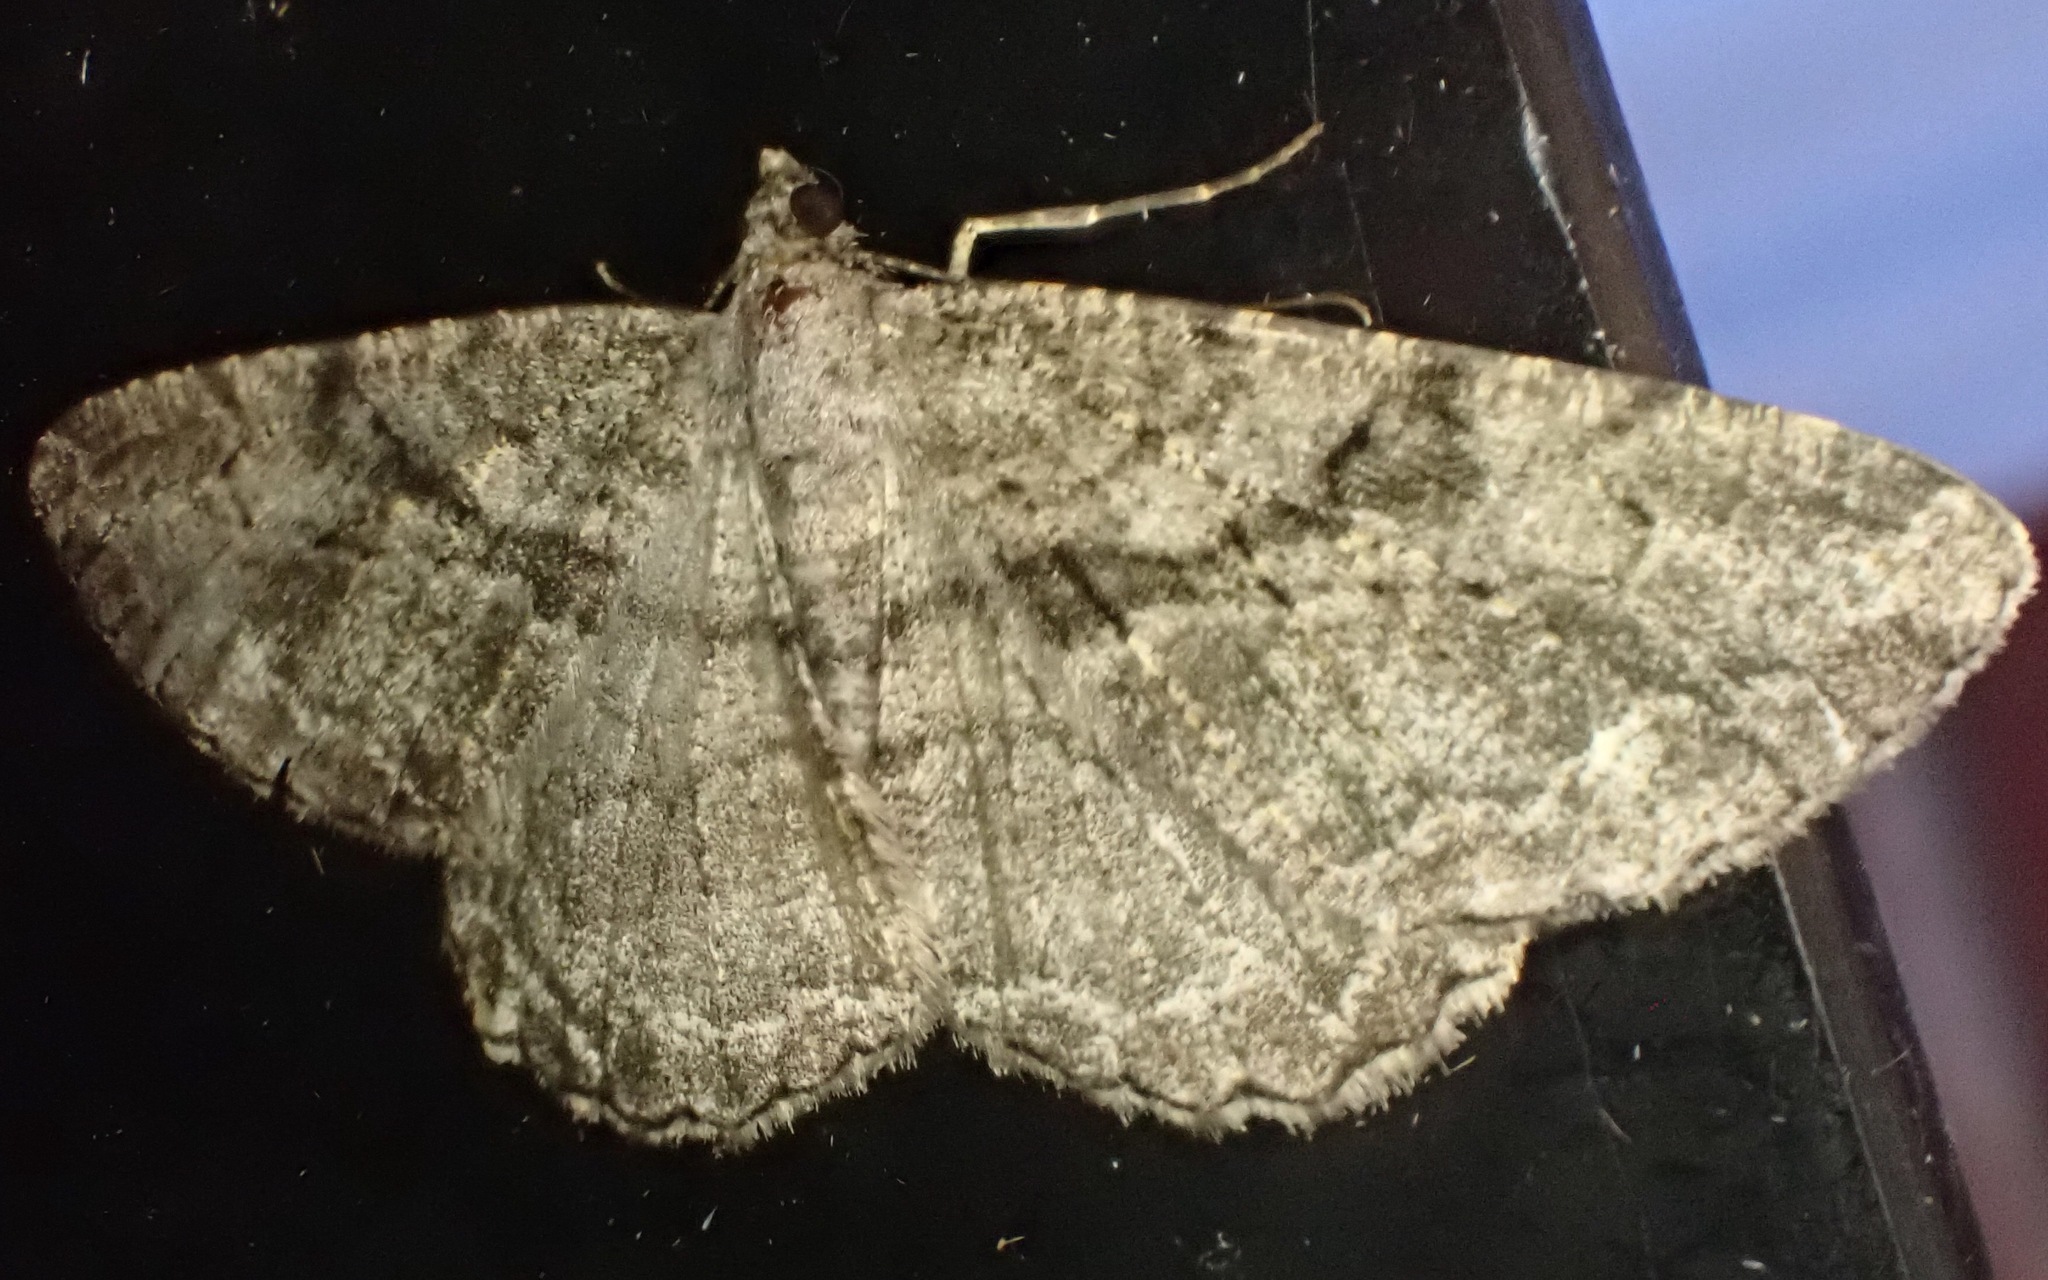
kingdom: Animalia
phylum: Arthropoda
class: Insecta
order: Lepidoptera
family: Geometridae
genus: Peribatodes
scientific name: Peribatodes rhomboidaria
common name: Willow beauty
